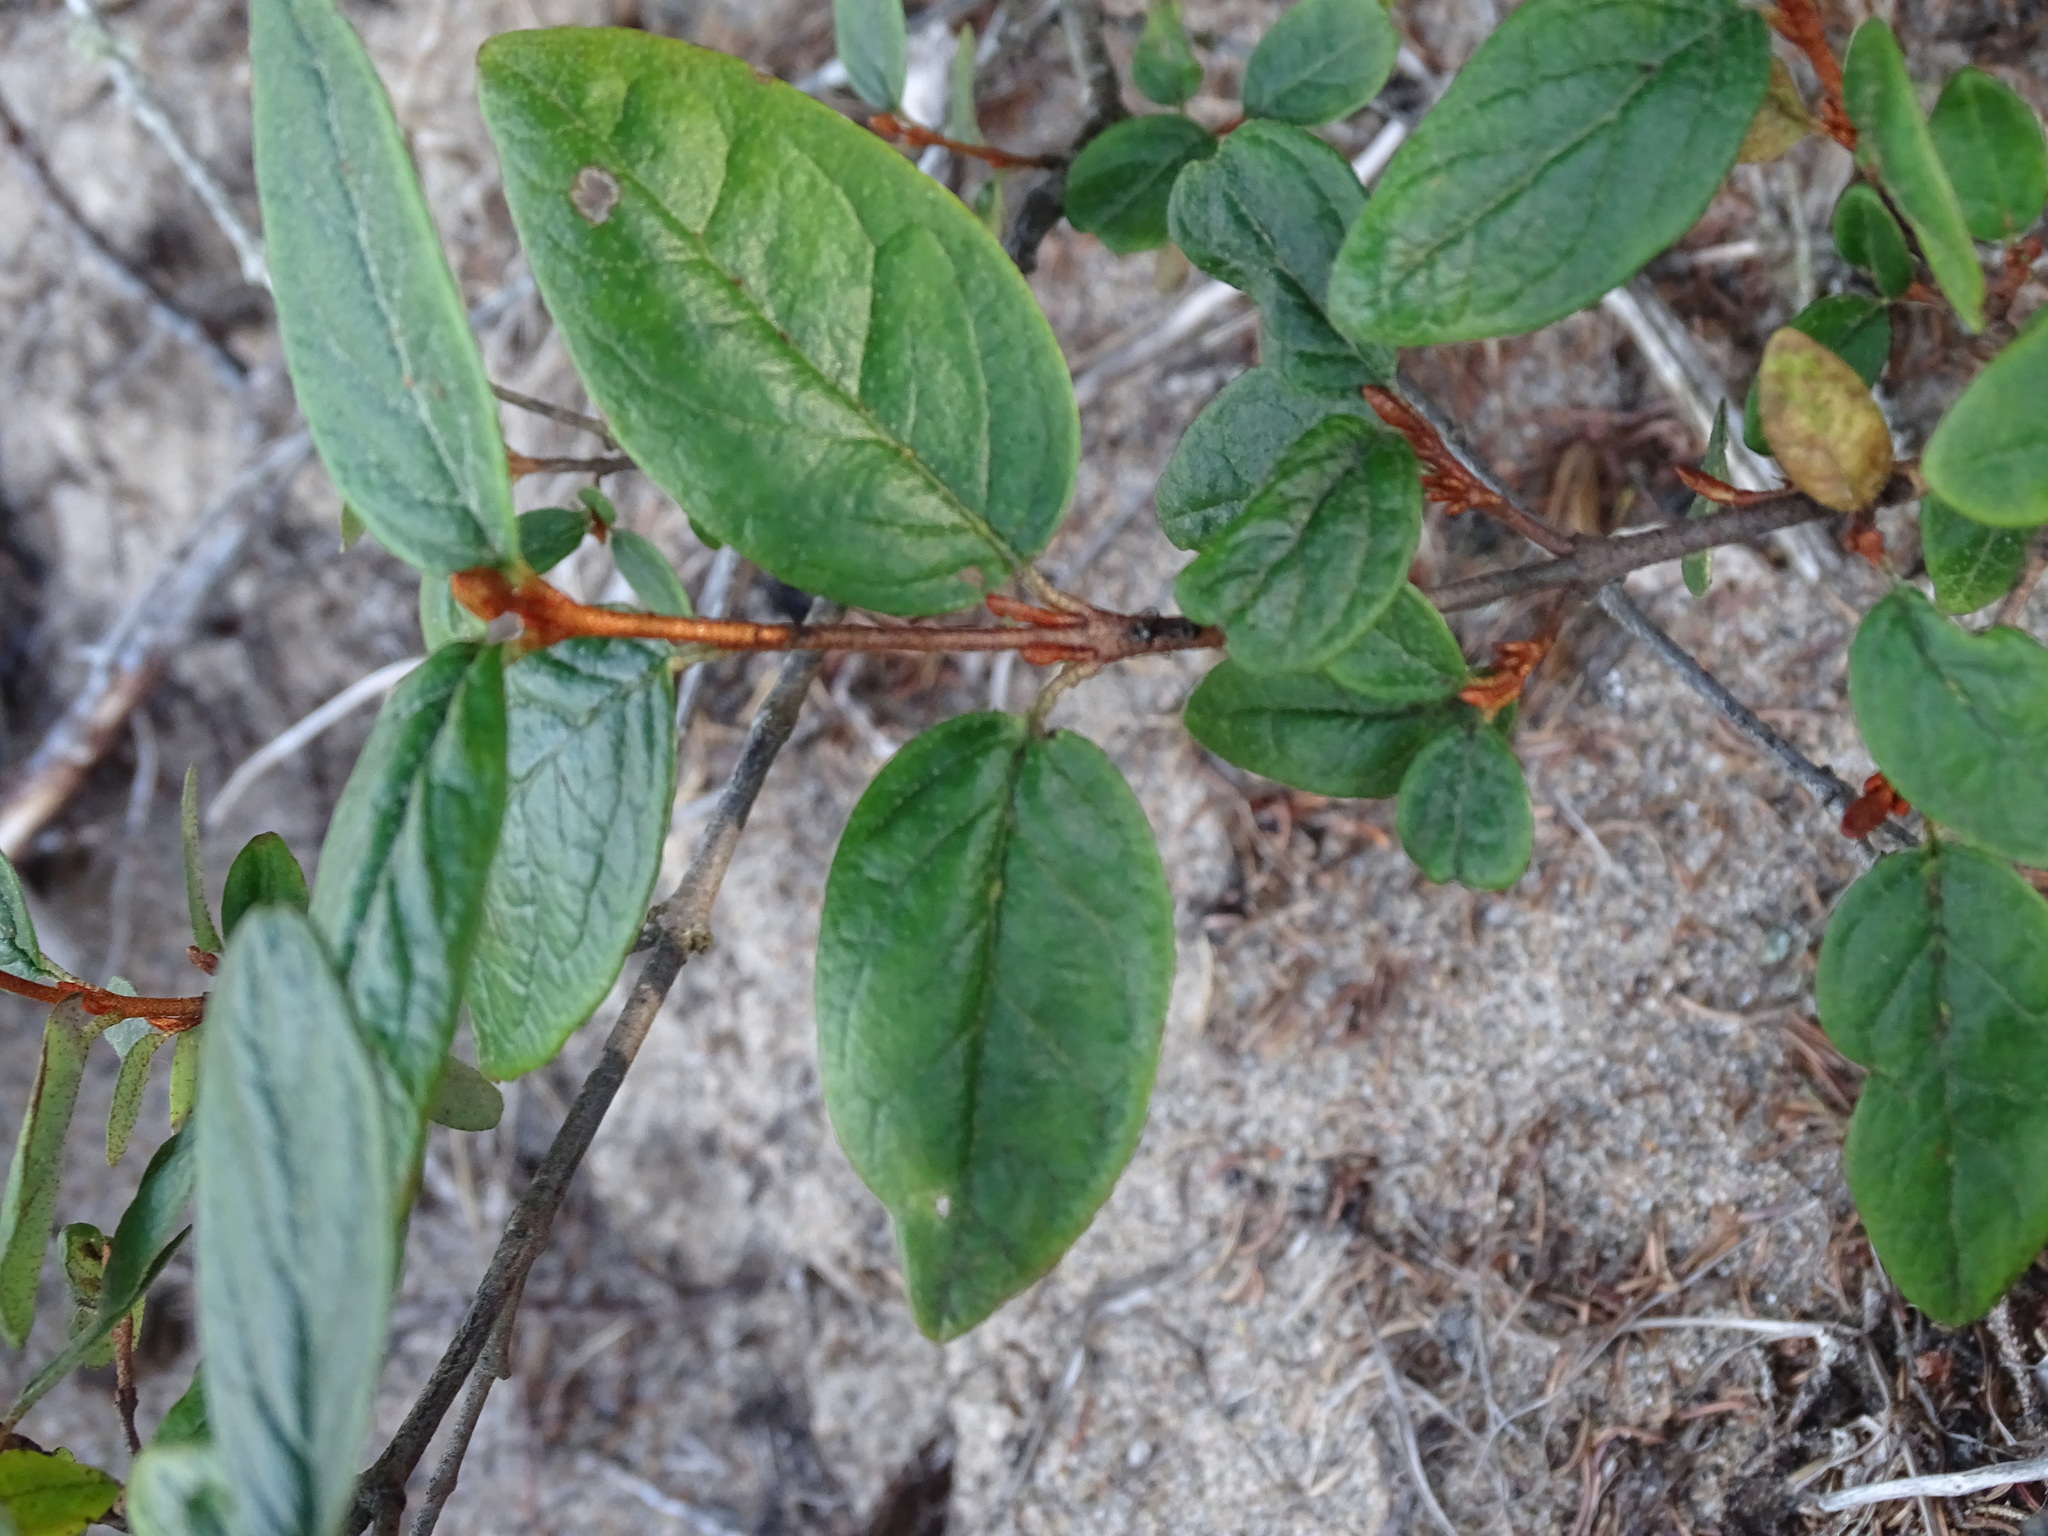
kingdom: Plantae
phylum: Tracheophyta
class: Magnoliopsida
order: Rosales
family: Elaeagnaceae
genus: Shepherdia
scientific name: Shepherdia canadensis
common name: Soapberry
